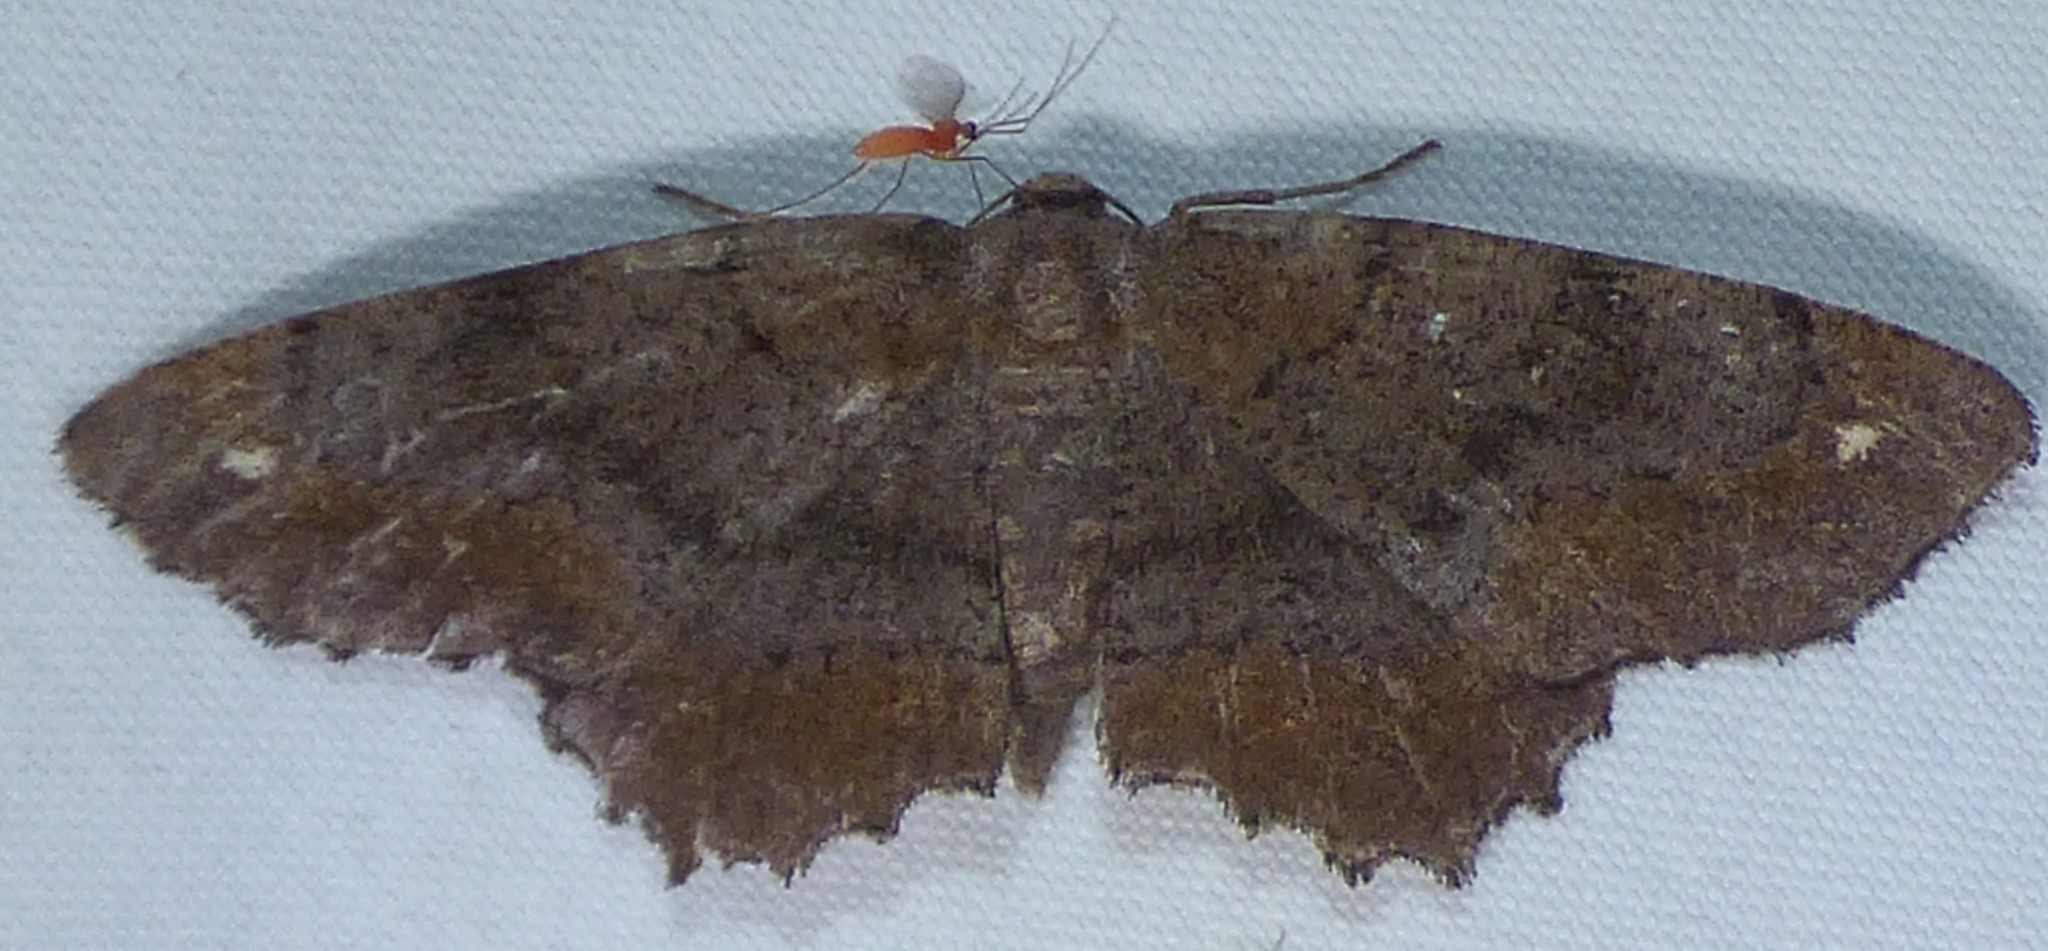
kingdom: Animalia
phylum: Arthropoda
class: Insecta
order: Lepidoptera
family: Geometridae
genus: Hypagyrtis
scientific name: Hypagyrtis esther
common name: Esther moth
